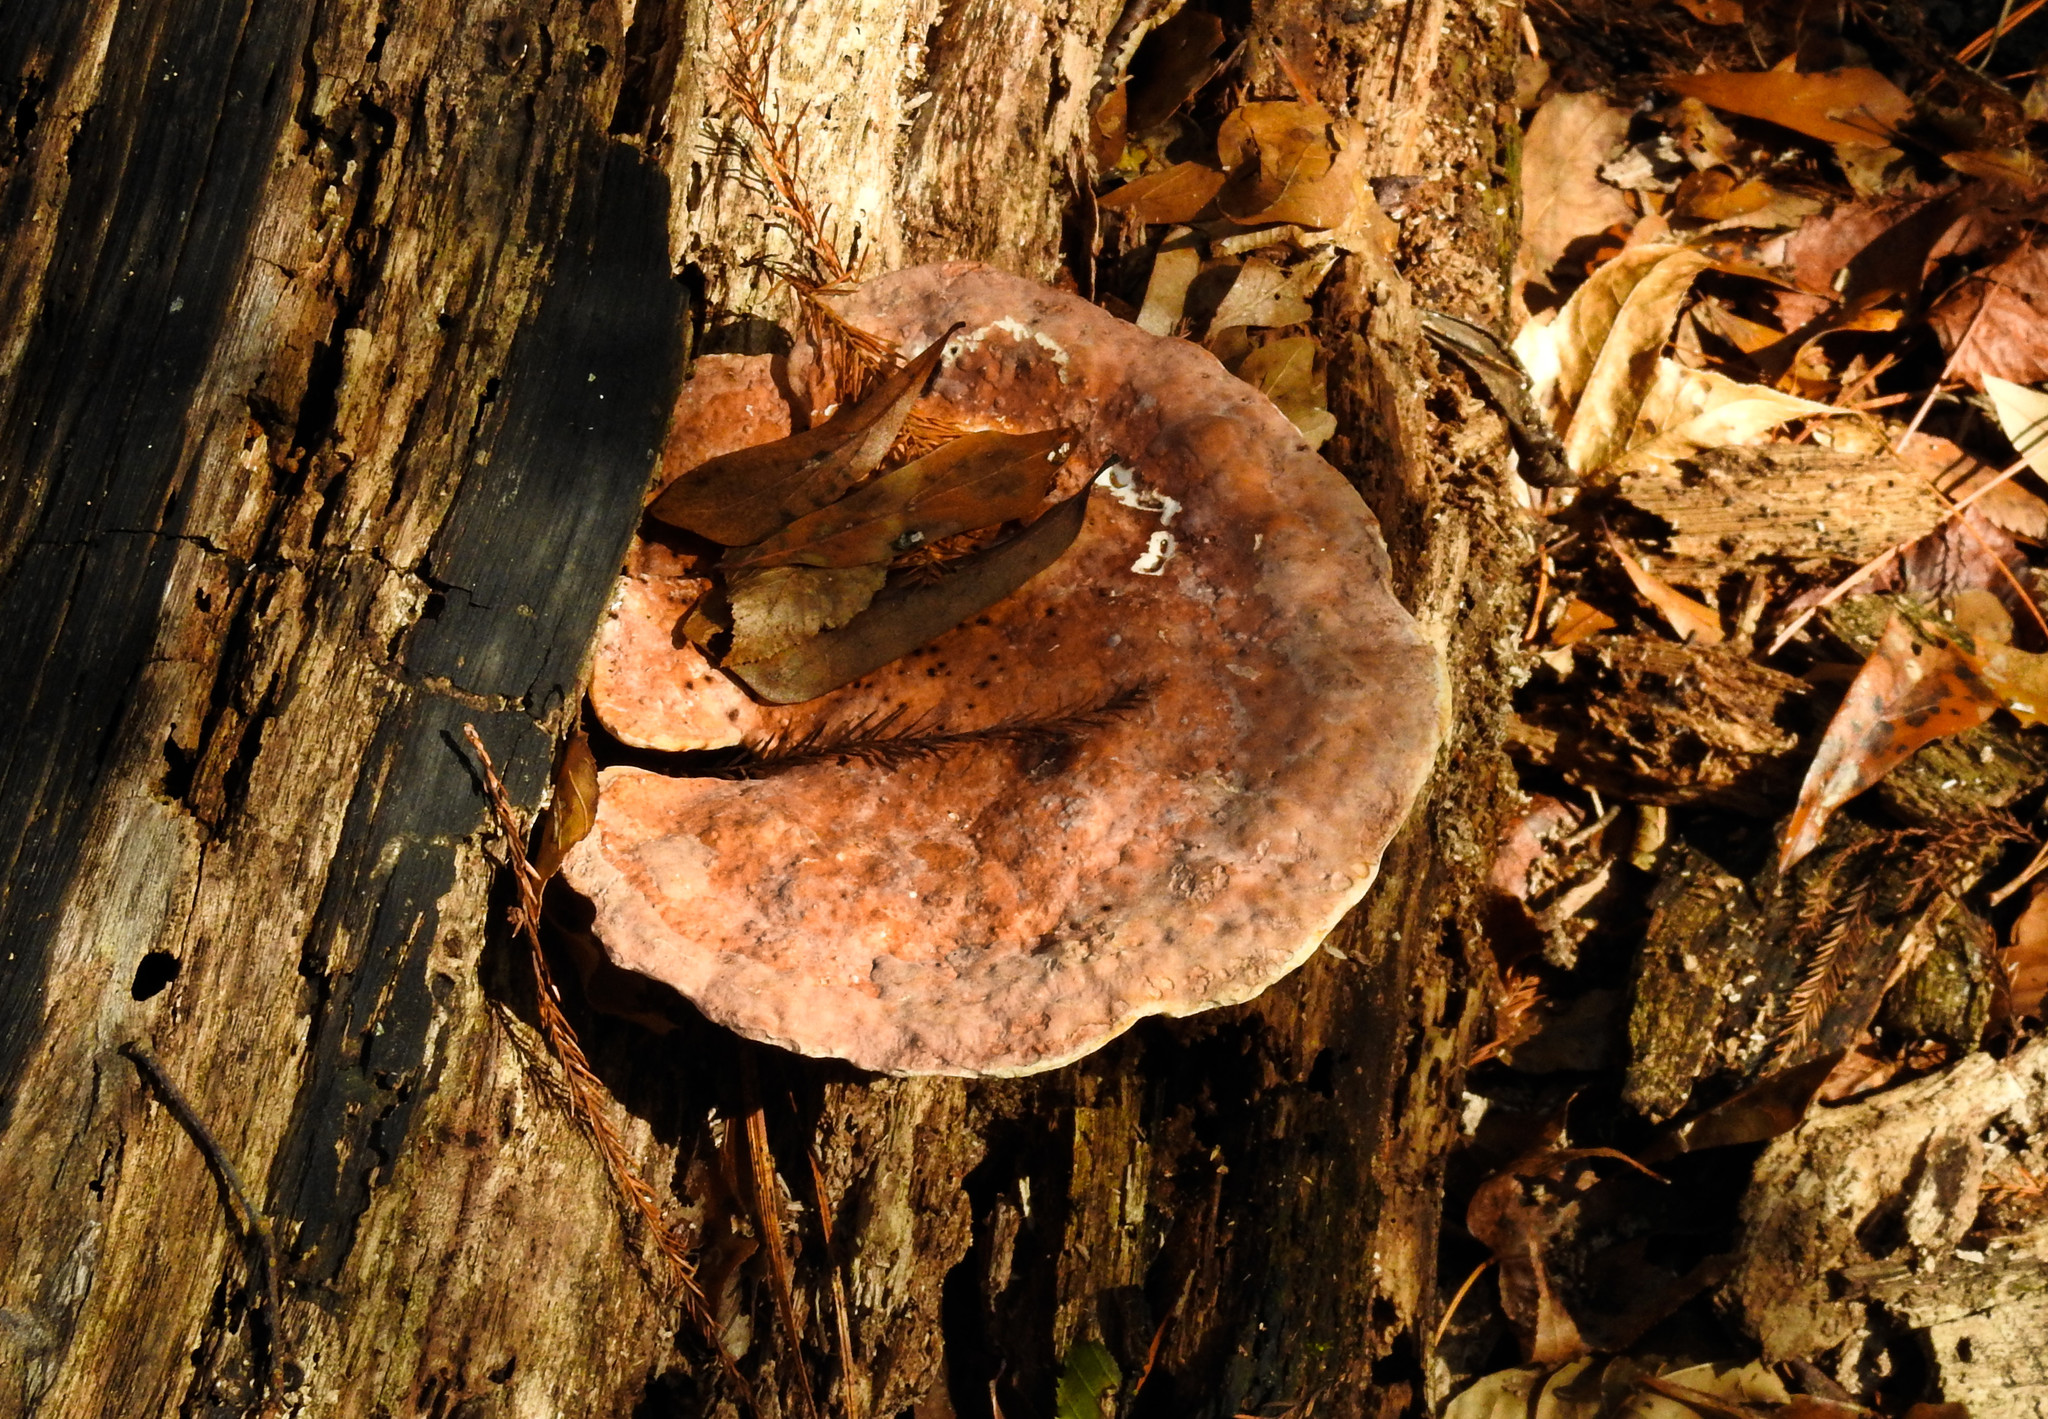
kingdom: Fungi
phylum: Basidiomycota
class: Agaricomycetes
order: Polyporales
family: Polyporaceae
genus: Ganoderma
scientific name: Ganoderma applanatum
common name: Artist's bracket
